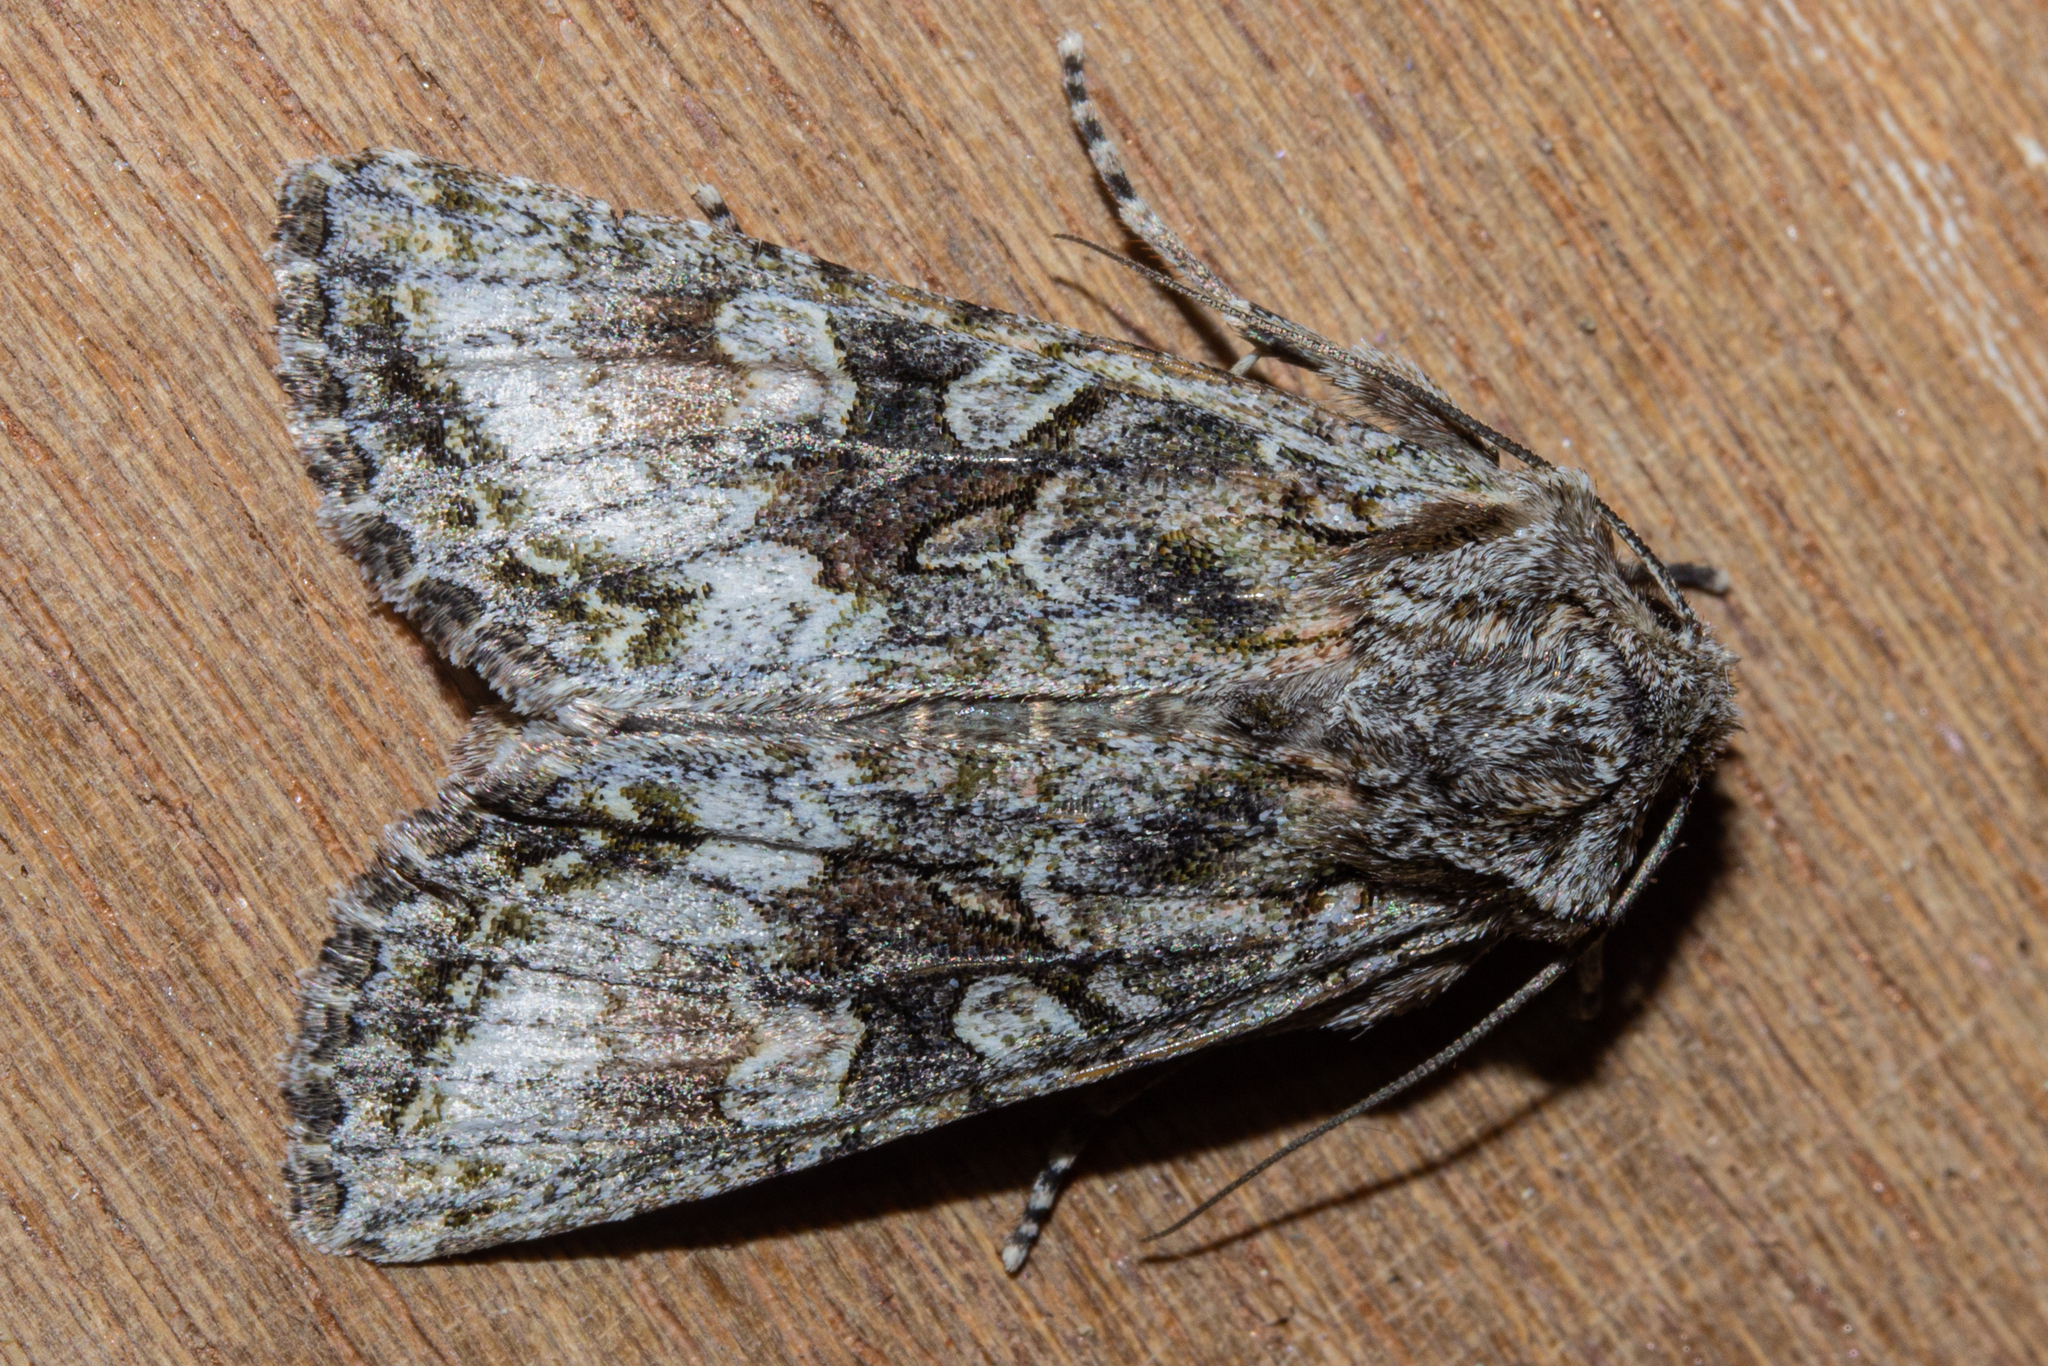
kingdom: Animalia
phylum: Arthropoda
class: Insecta
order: Lepidoptera
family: Noctuidae
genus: Ichneutica
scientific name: Ichneutica mutans
